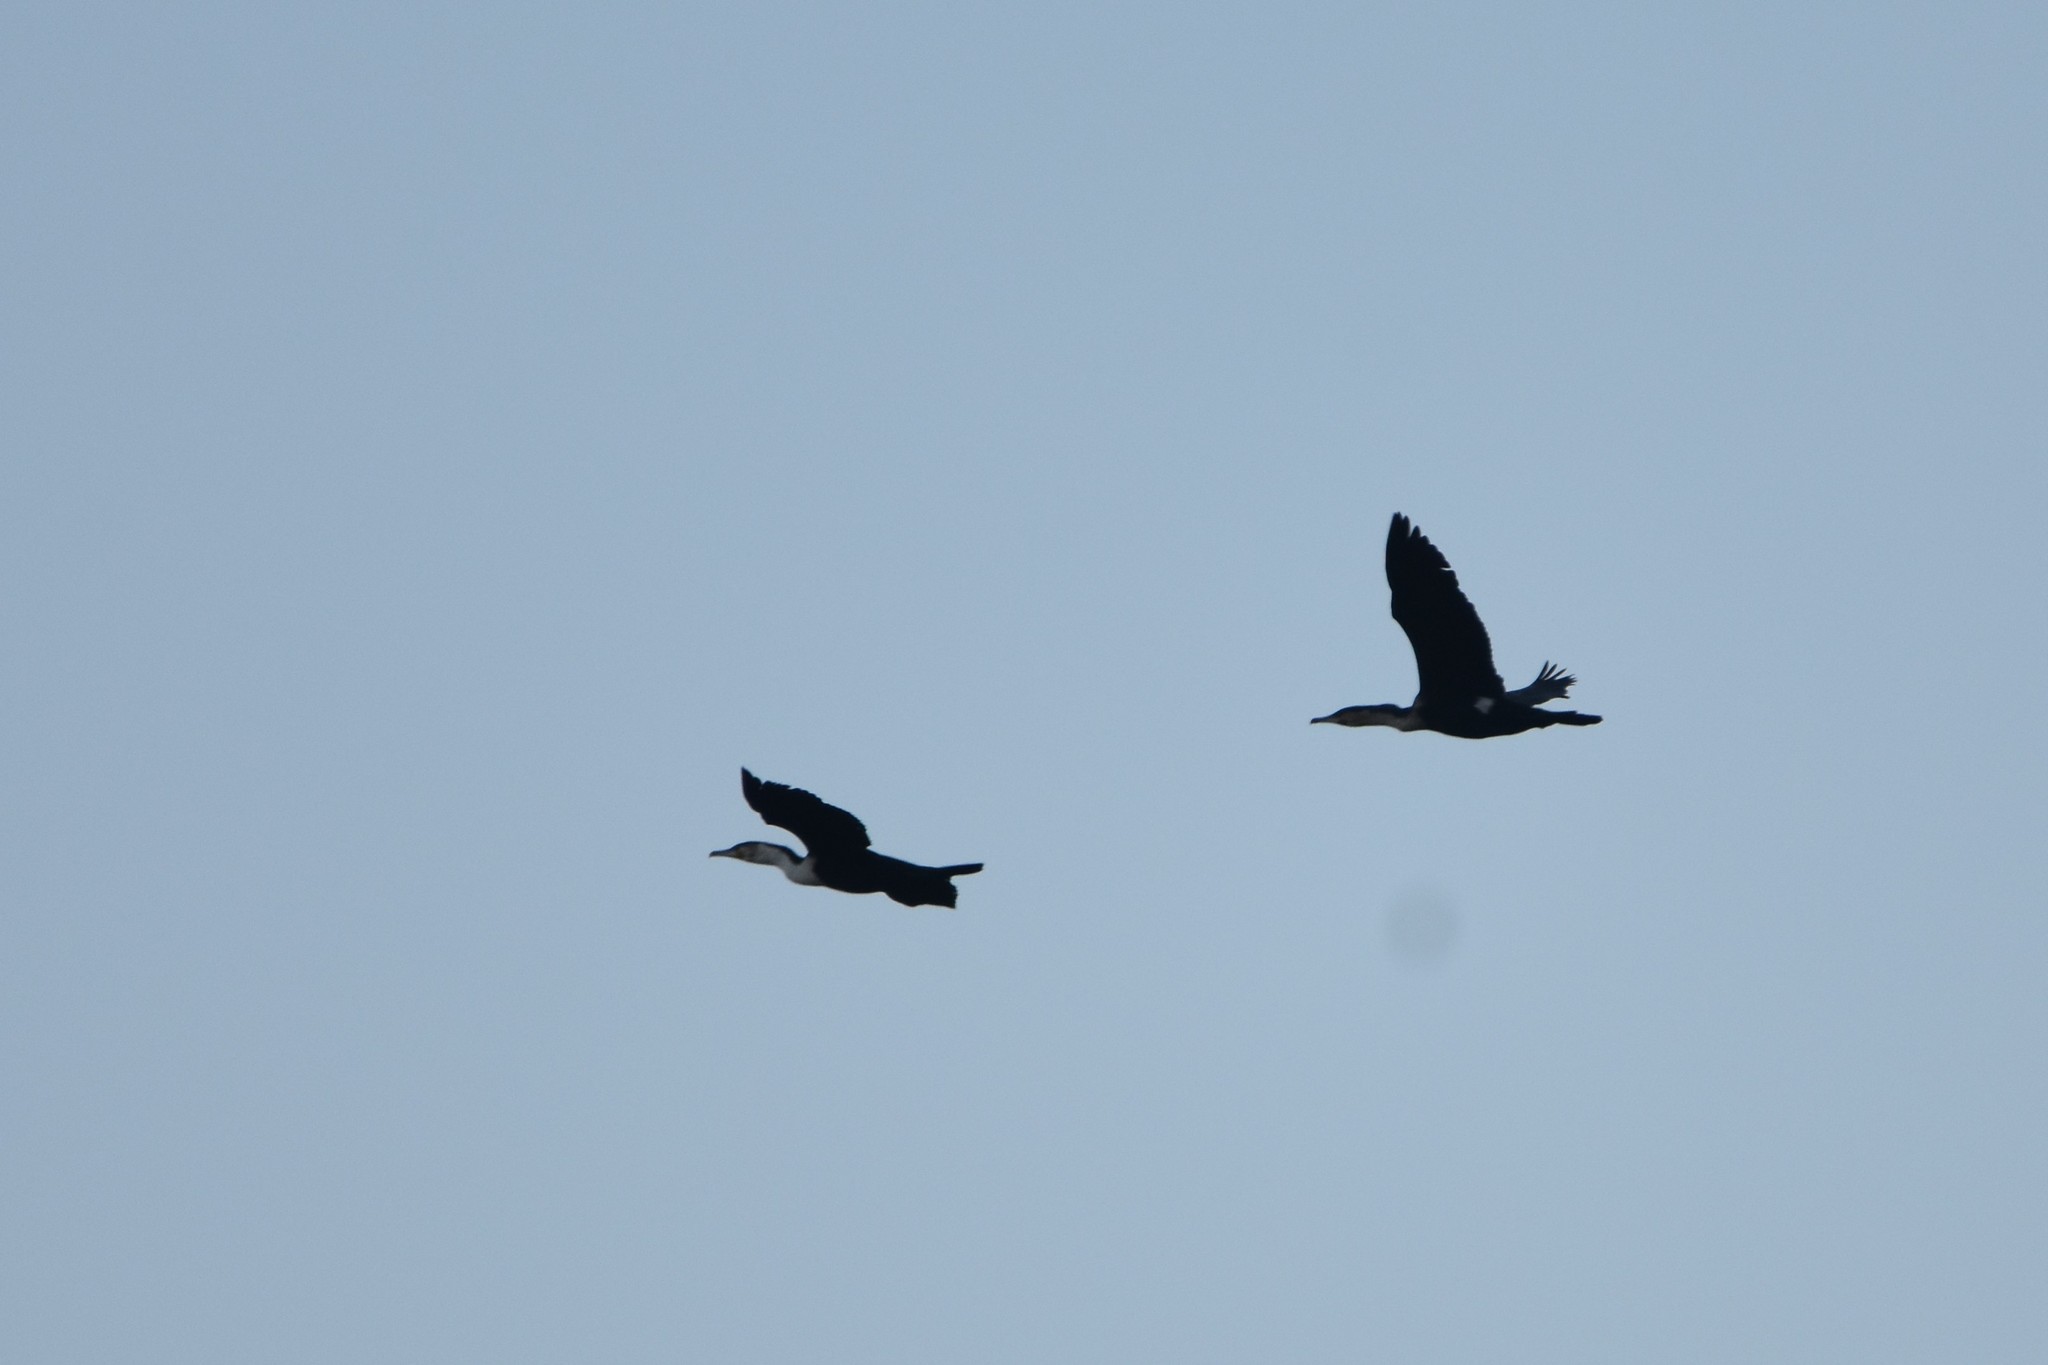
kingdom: Animalia
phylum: Chordata
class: Aves
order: Suliformes
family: Phalacrocoracidae
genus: Phalacrocorax
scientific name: Phalacrocorax carbo
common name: Great cormorant
